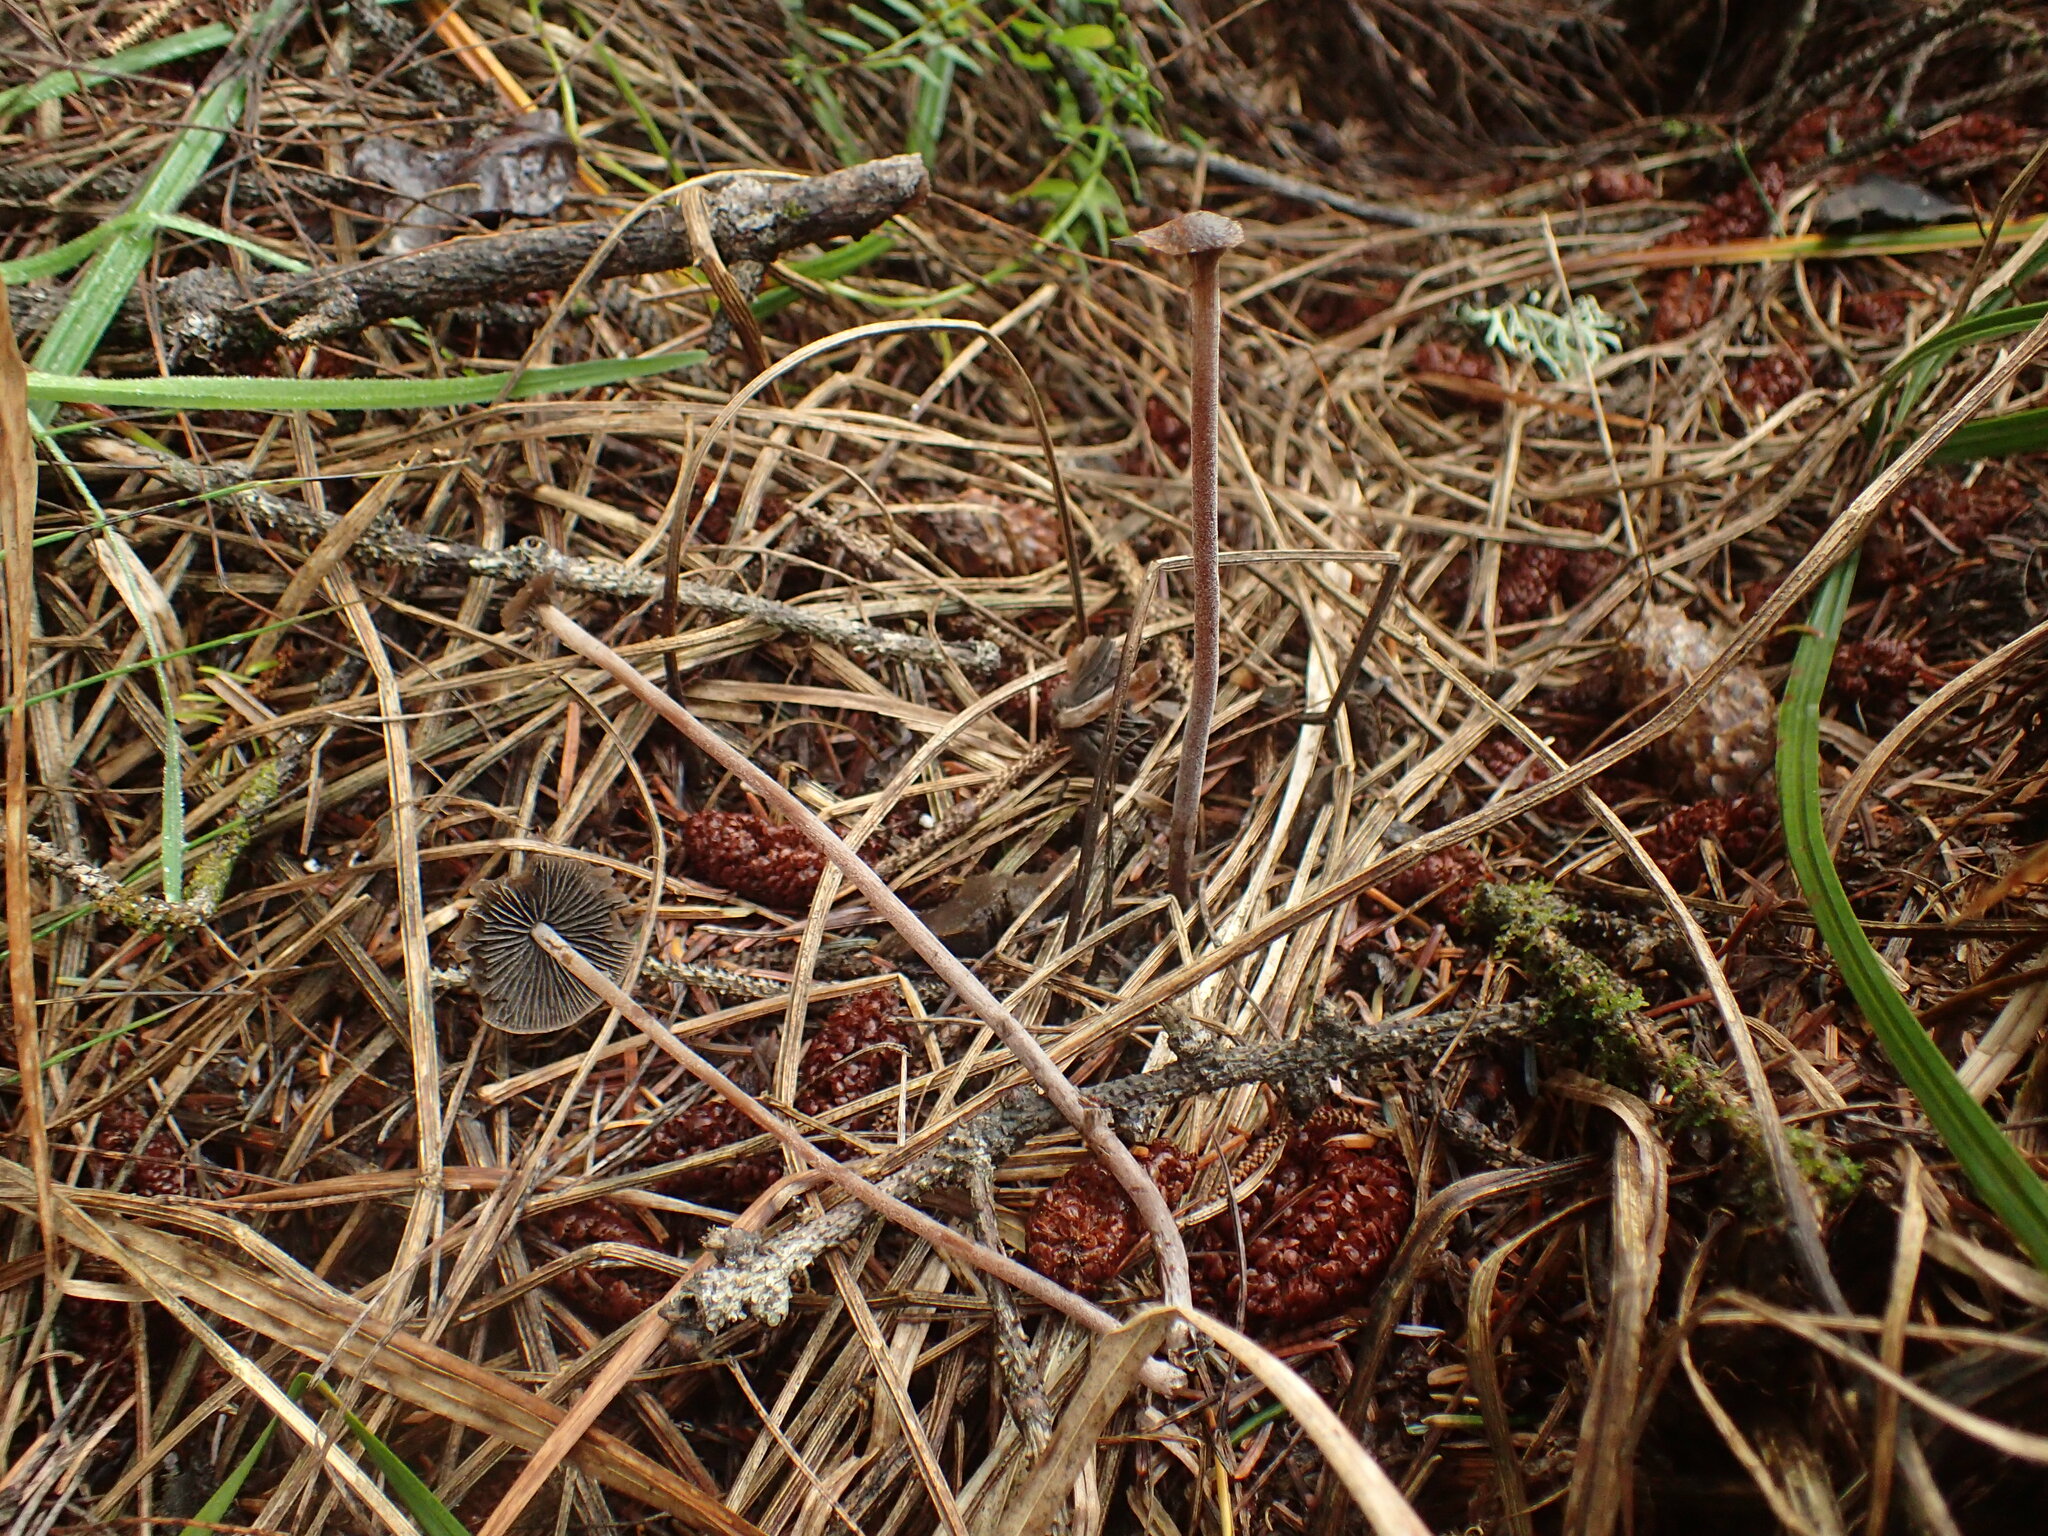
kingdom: Fungi
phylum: Basidiomycota
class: Agaricomycetes
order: Agaricales
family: Bolbitiaceae
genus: Panaeolus
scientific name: Panaeolus acuminatus
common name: Dewdrop mottlegill
